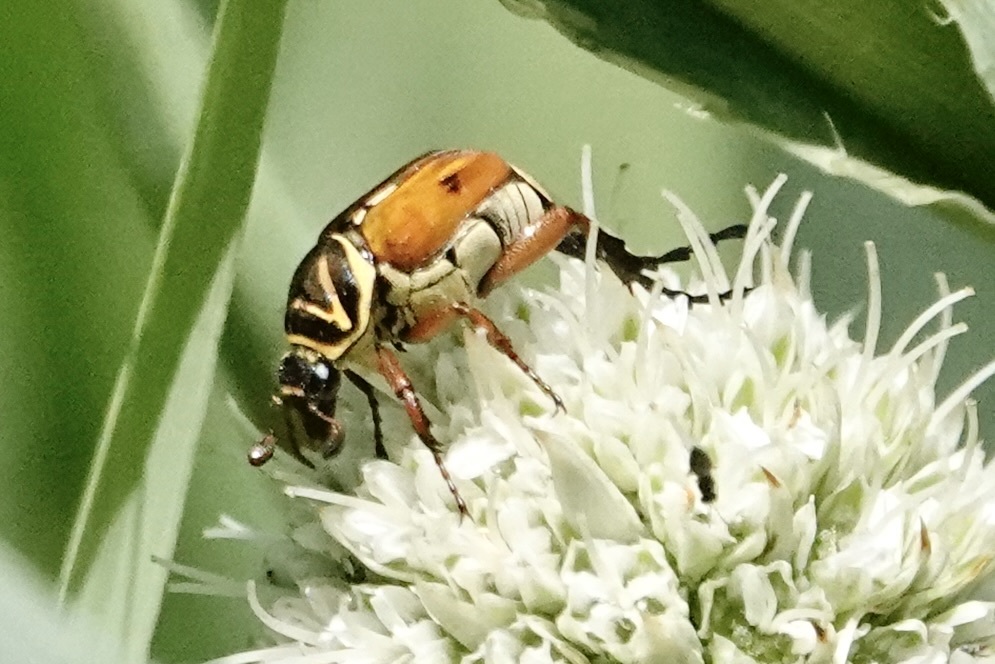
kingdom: Animalia
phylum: Arthropoda
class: Insecta
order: Coleoptera
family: Scarabaeidae
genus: Trigonopeltastes
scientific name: Trigonopeltastes delta
